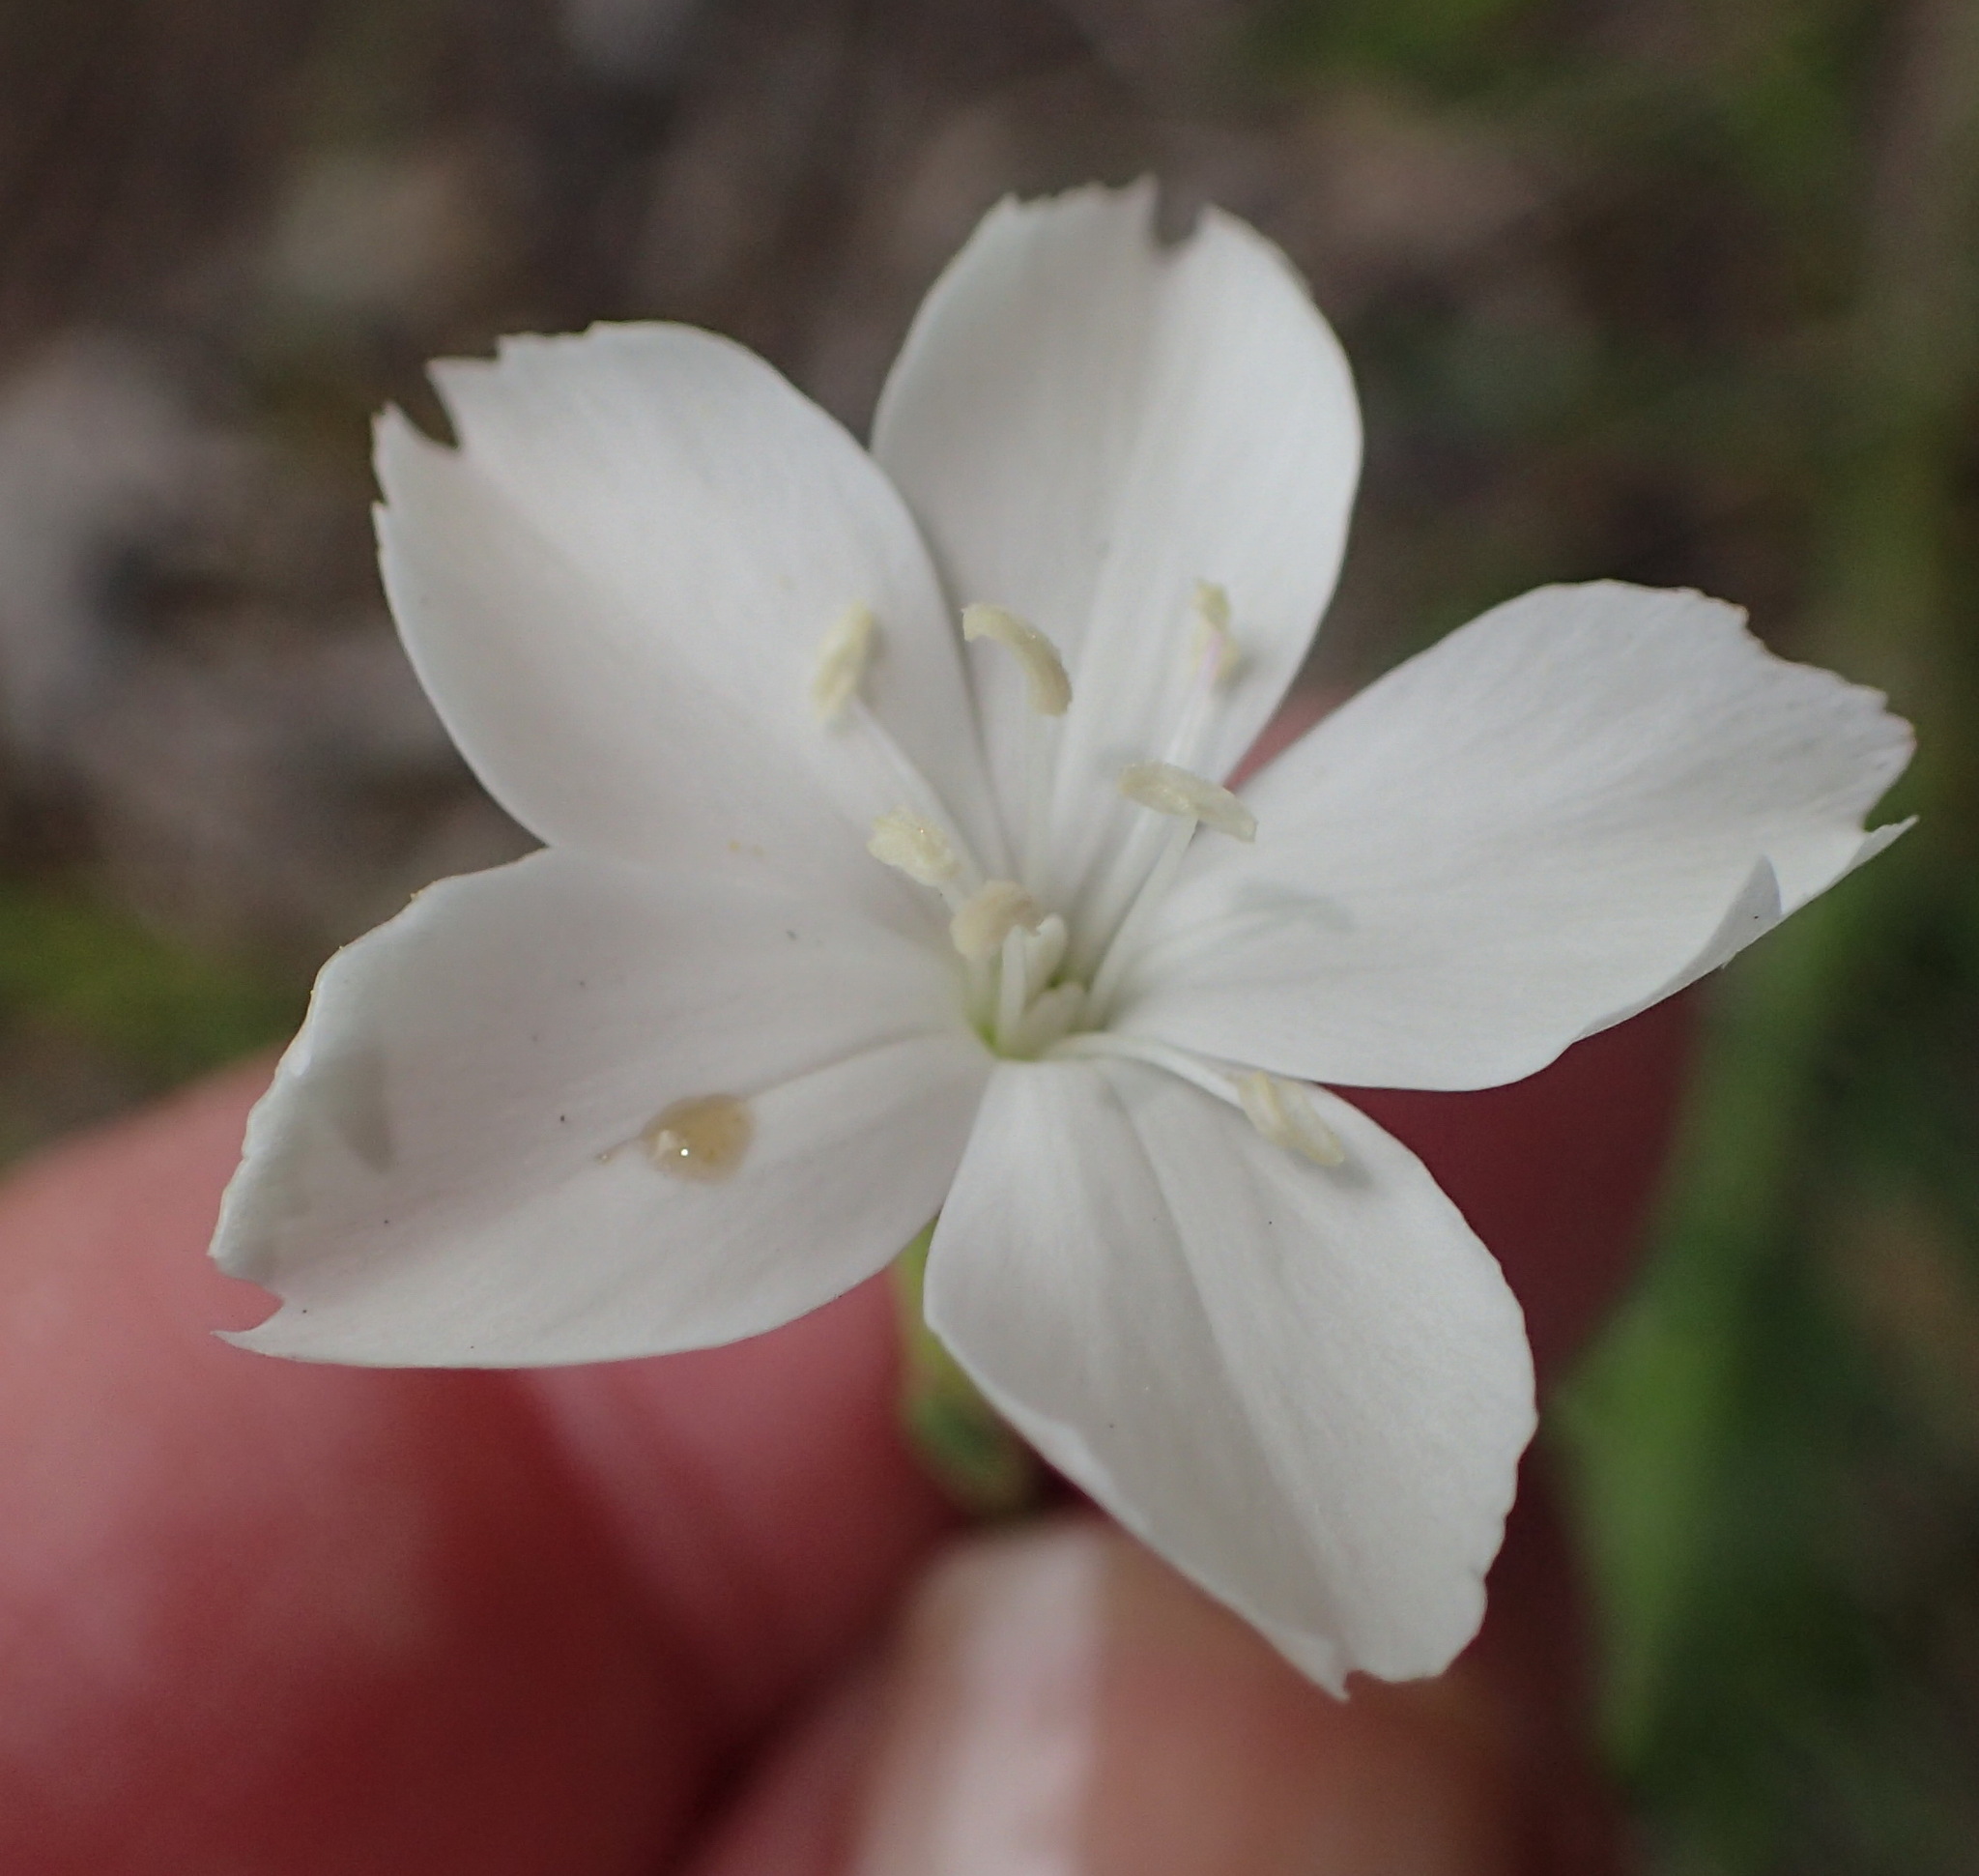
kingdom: Plantae
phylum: Tracheophyta
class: Magnoliopsida
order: Caryophyllales
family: Caryophyllaceae
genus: Dianthus
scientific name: Dianthus albens
